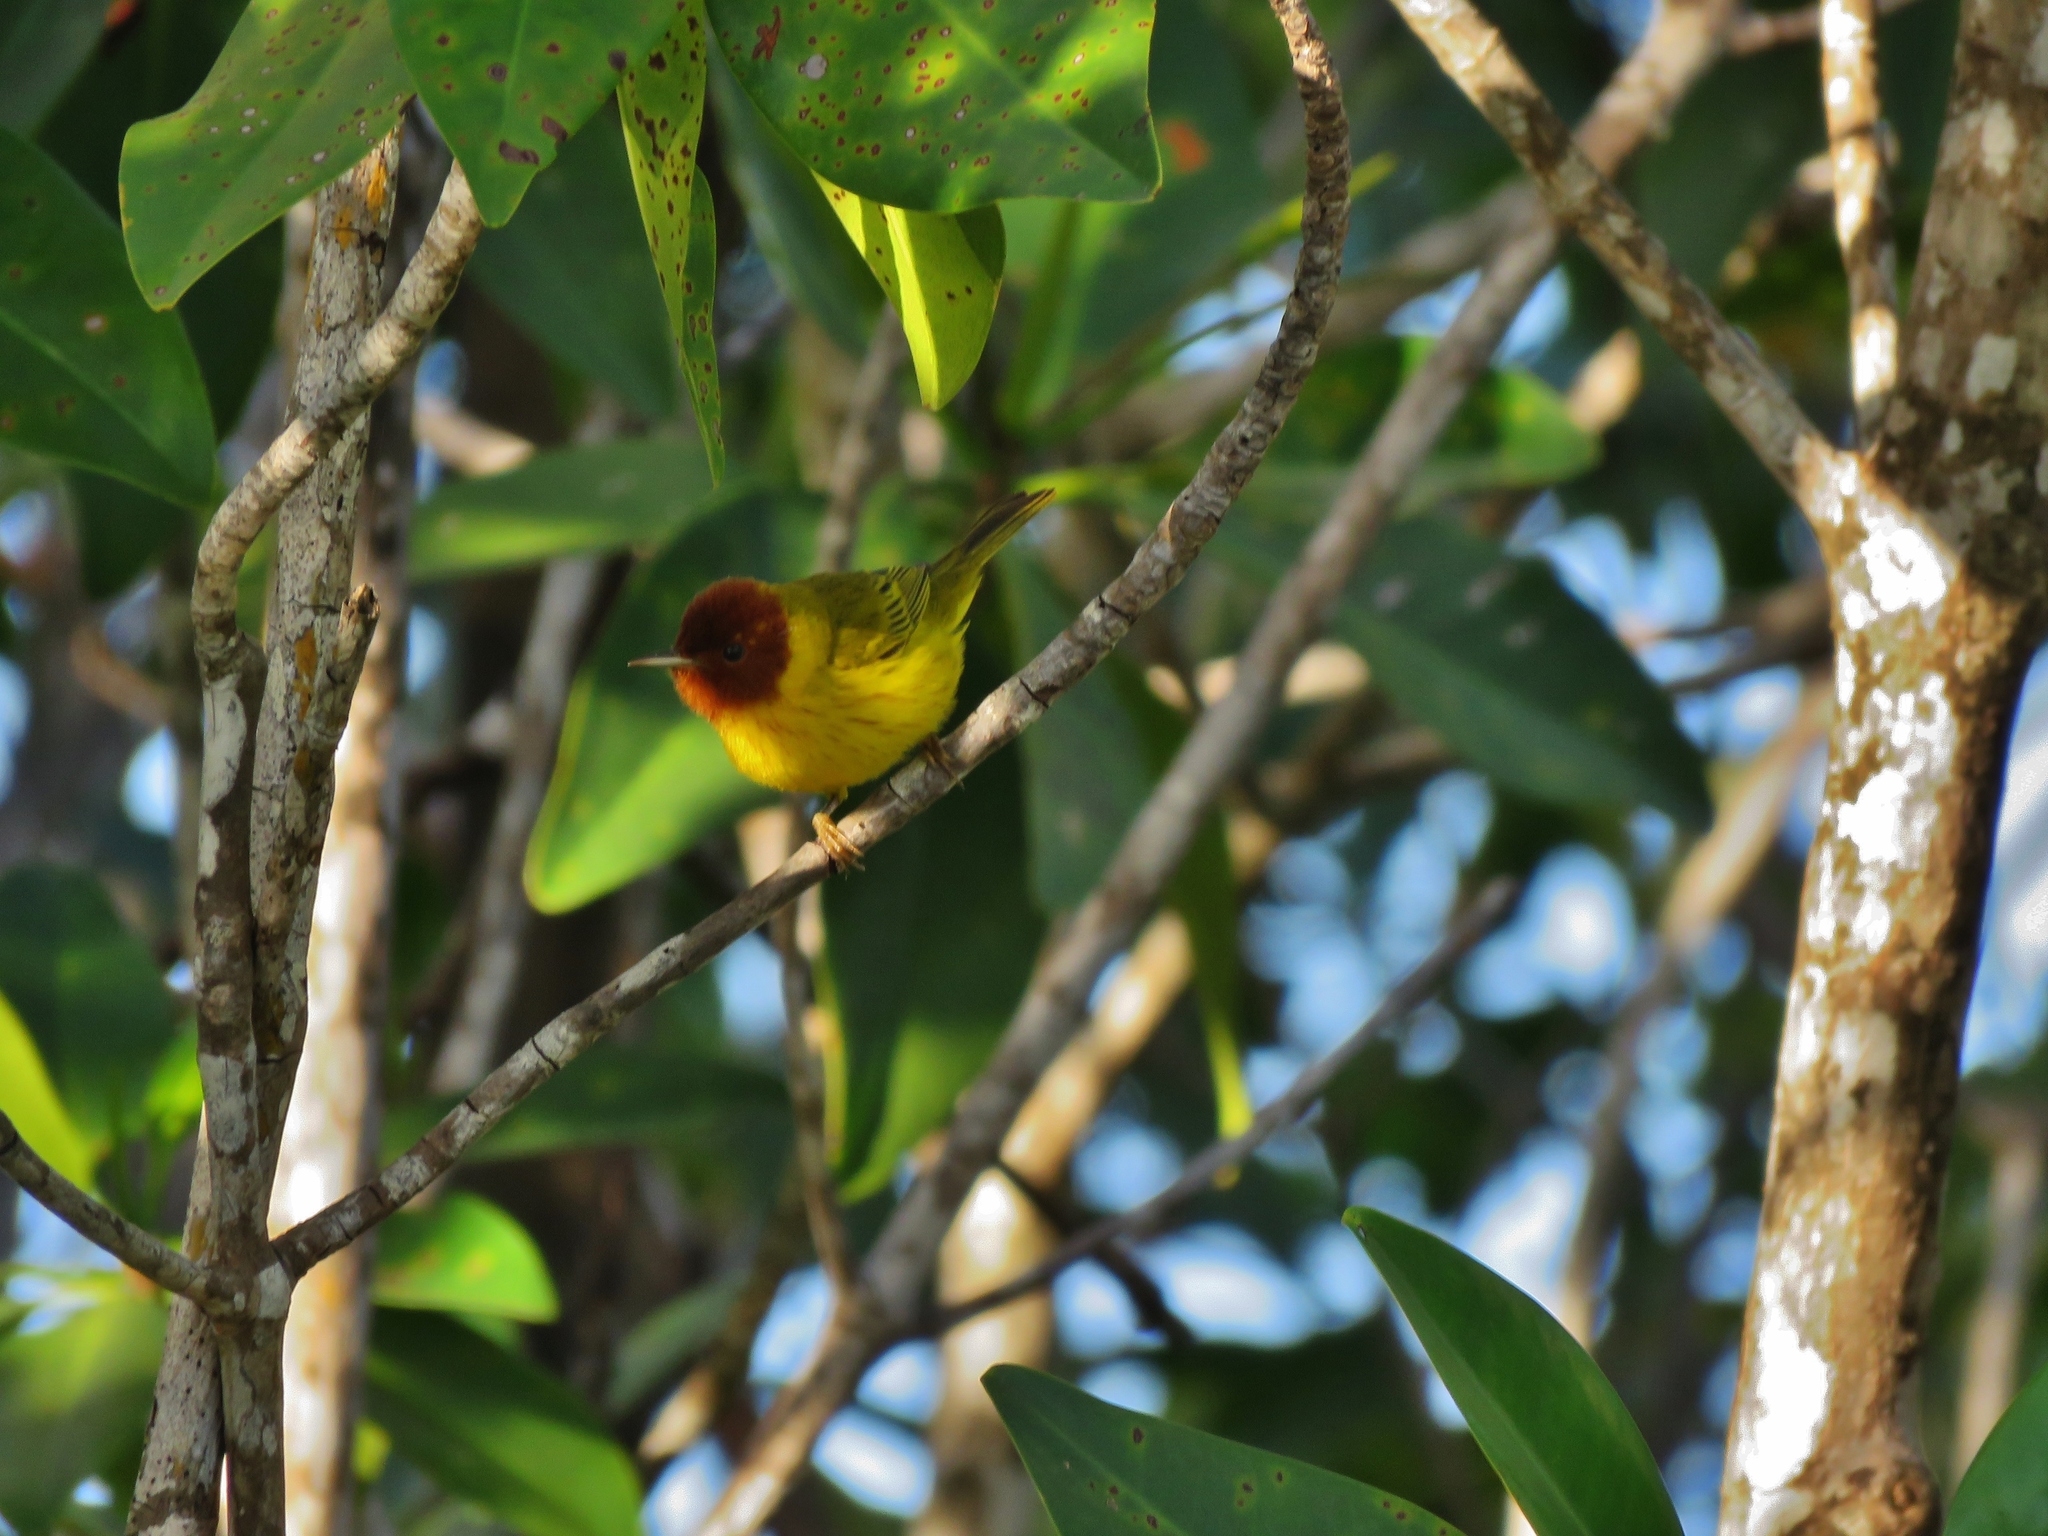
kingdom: Animalia
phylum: Chordata
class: Aves
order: Passeriformes
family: Parulidae
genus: Setophaga
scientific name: Setophaga petechia
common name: Yellow warbler
